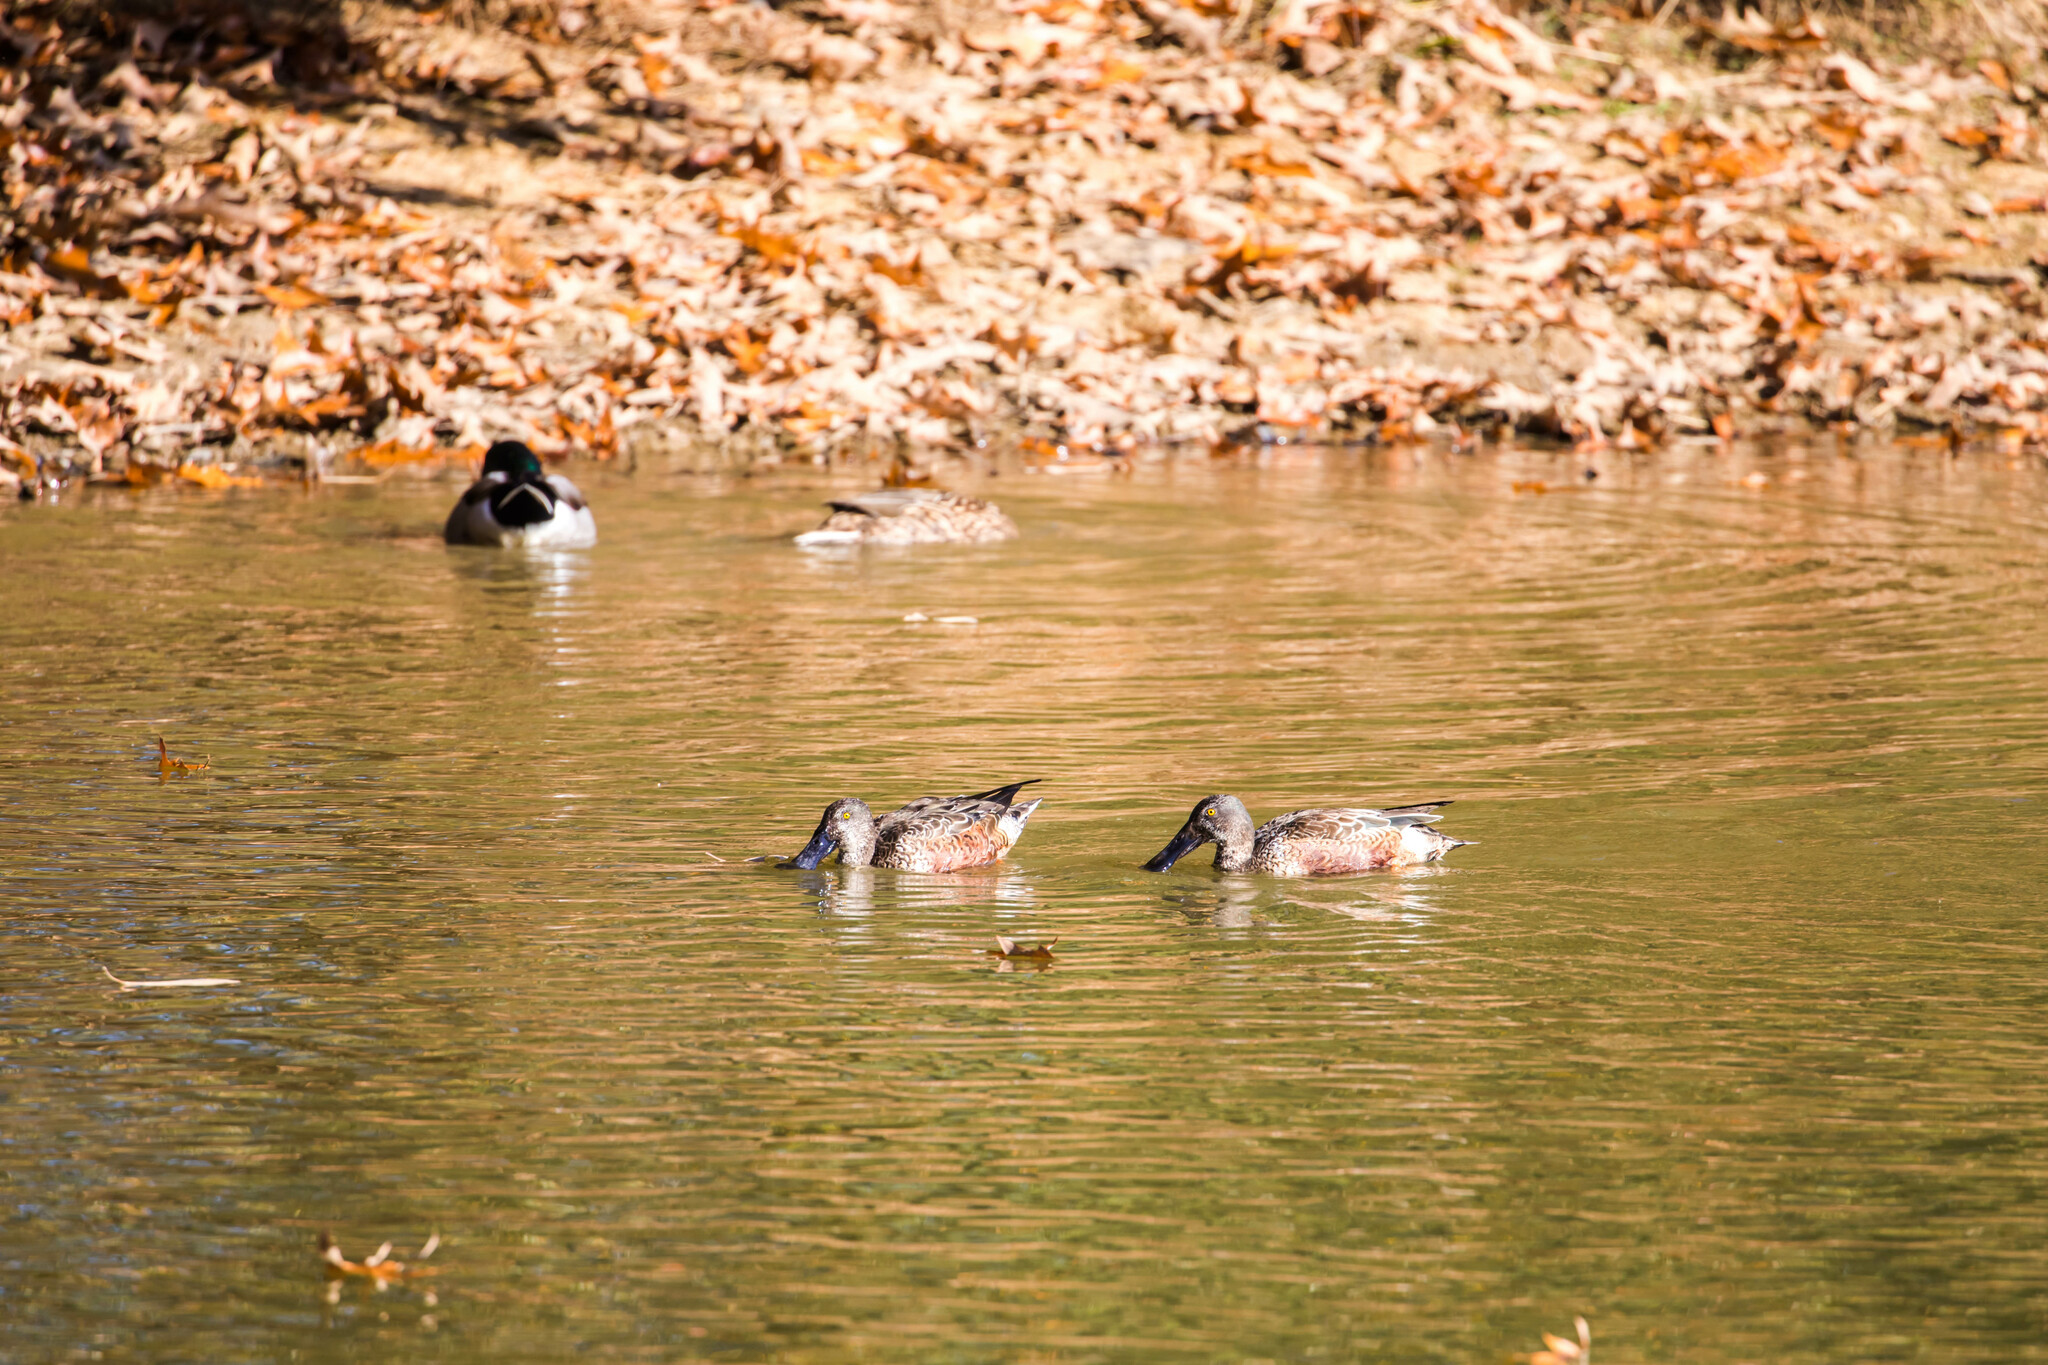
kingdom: Animalia
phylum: Chordata
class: Aves
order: Anseriformes
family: Anatidae
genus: Spatula
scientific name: Spatula clypeata
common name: Northern shoveler
